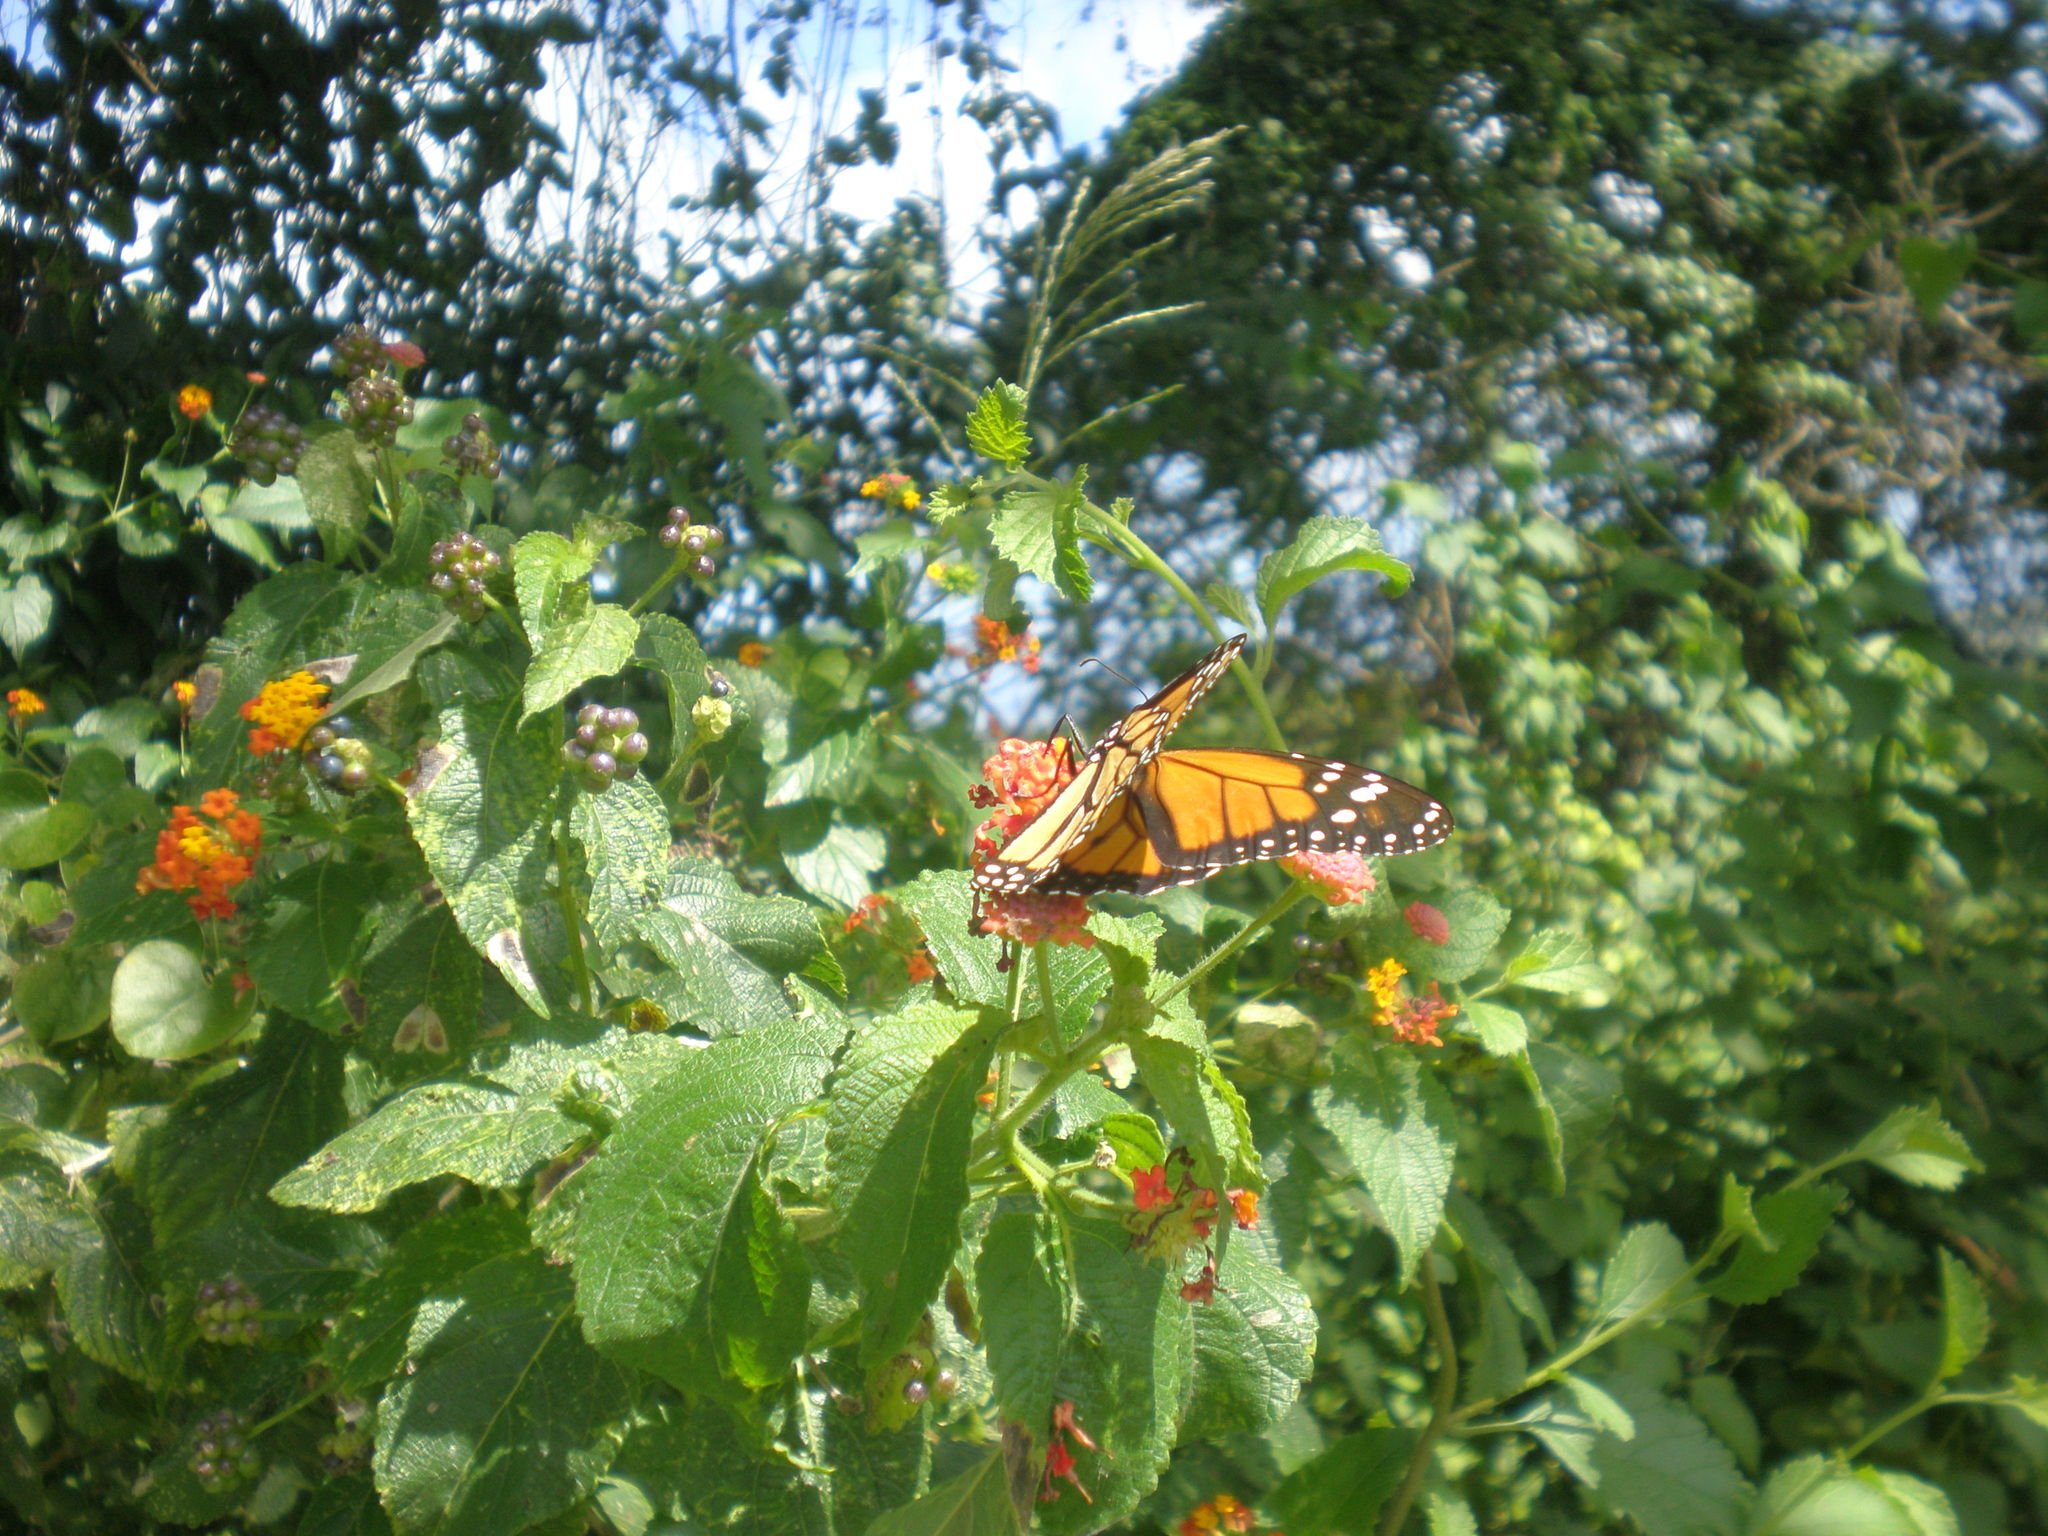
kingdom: Animalia
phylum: Arthropoda
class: Insecta
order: Lepidoptera
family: Nymphalidae
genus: Danaus
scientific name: Danaus plexippus
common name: Monarch
